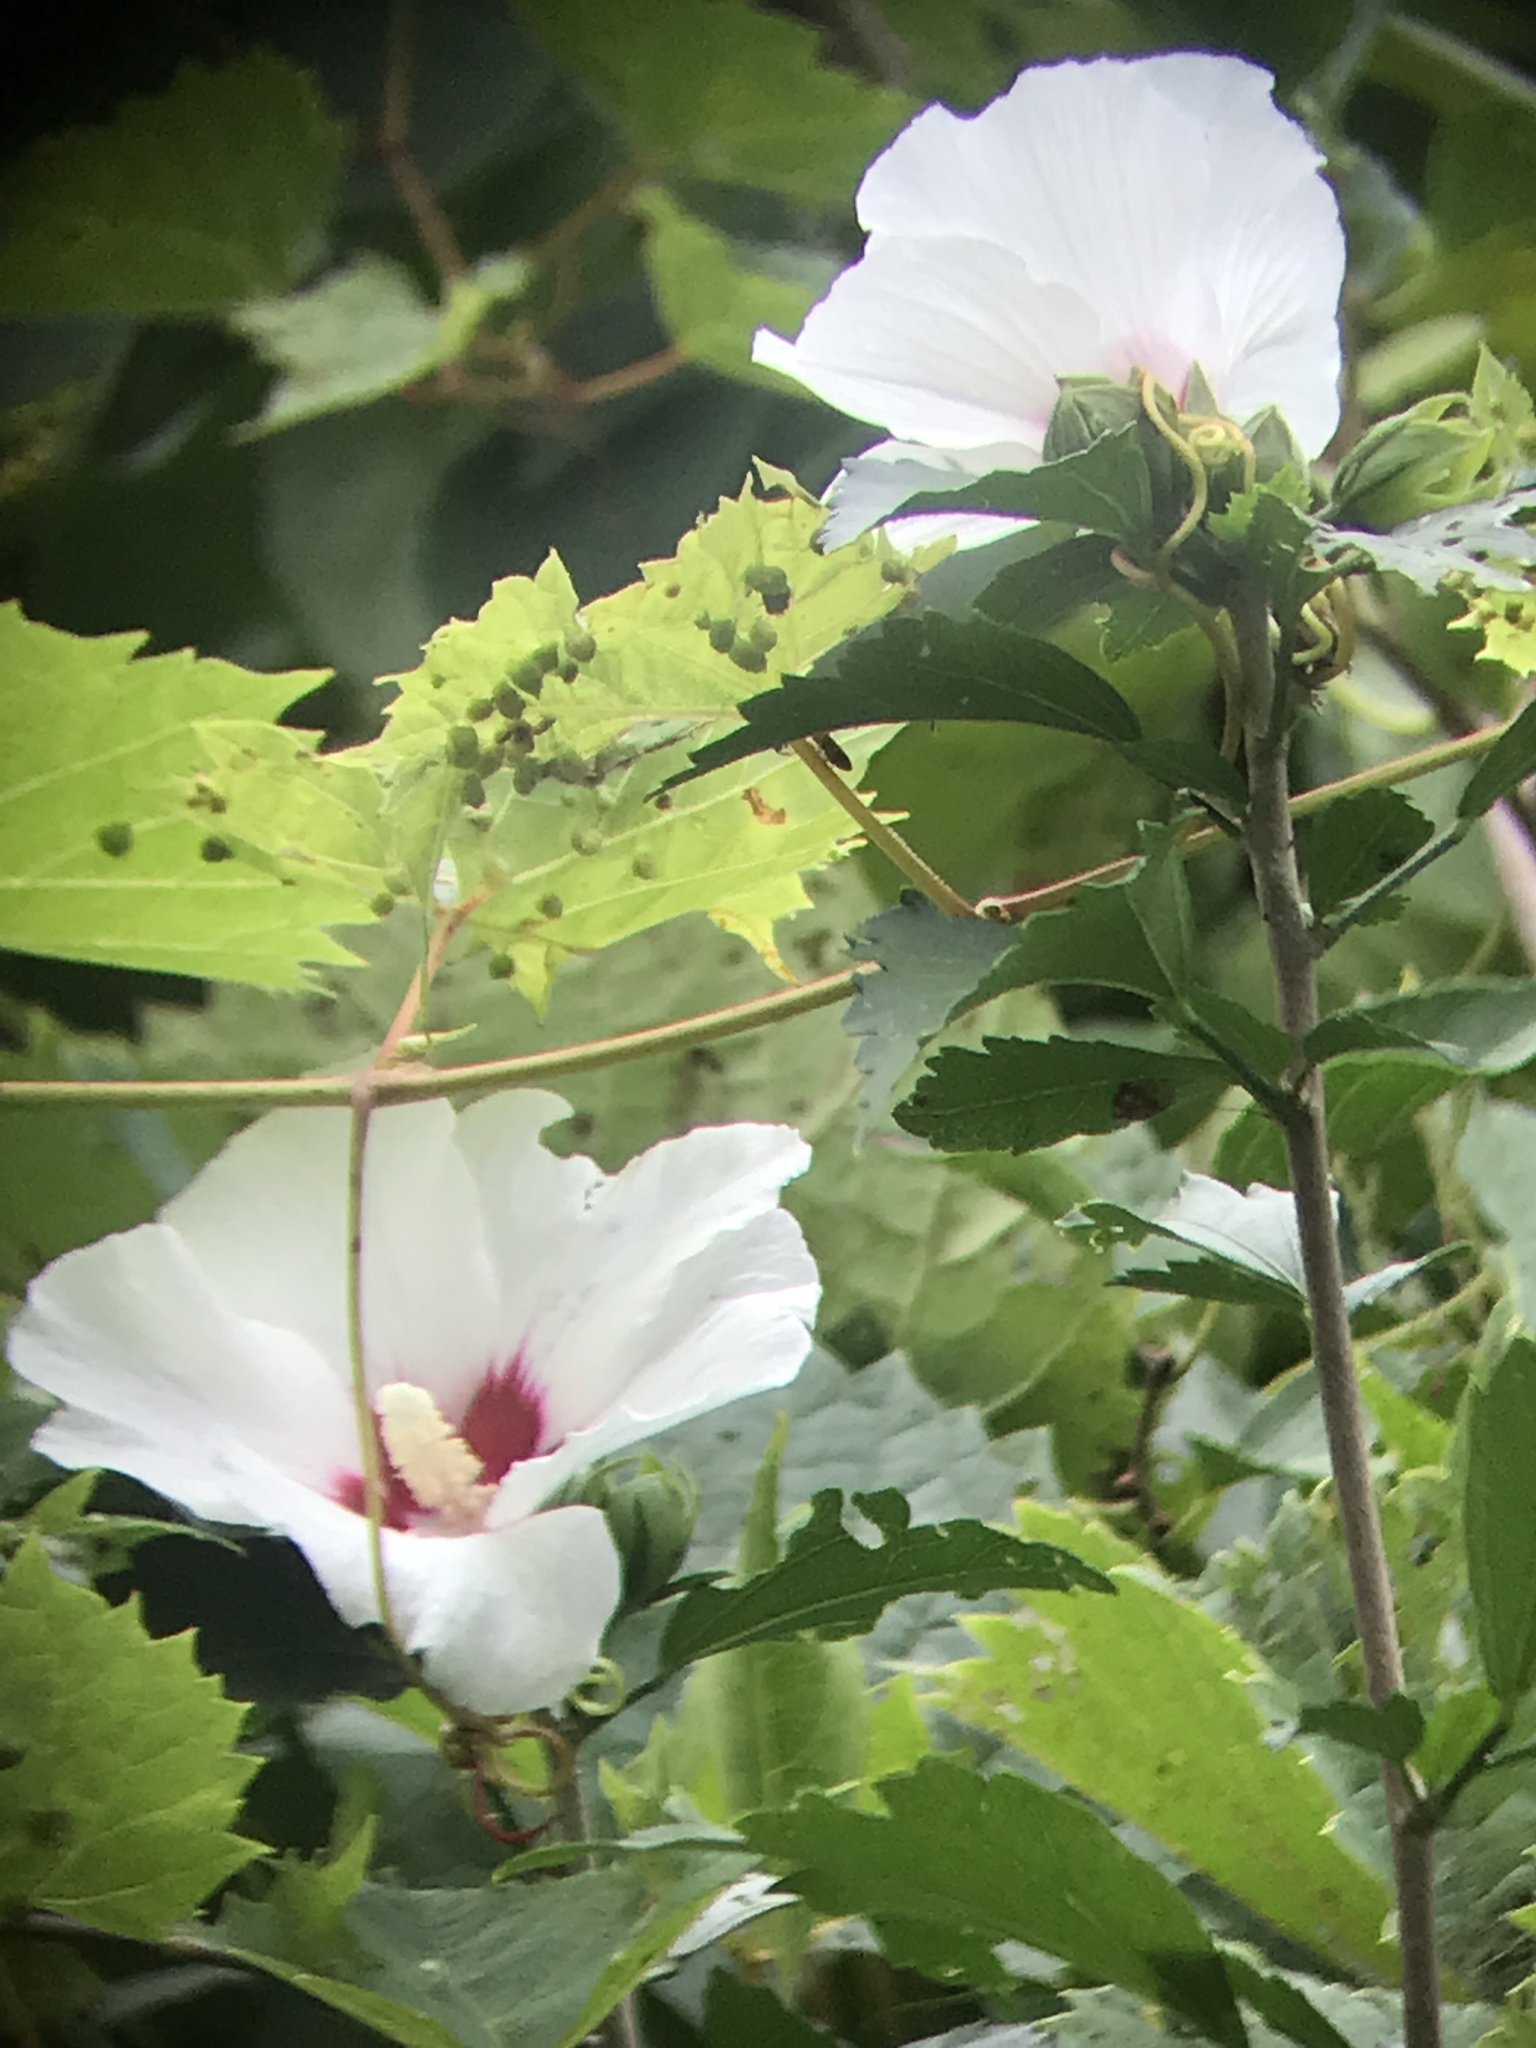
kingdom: Plantae
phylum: Tracheophyta
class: Magnoliopsida
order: Malvales
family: Malvaceae
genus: Hibiscus
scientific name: Hibiscus syriacus
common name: Syrian ketmia
